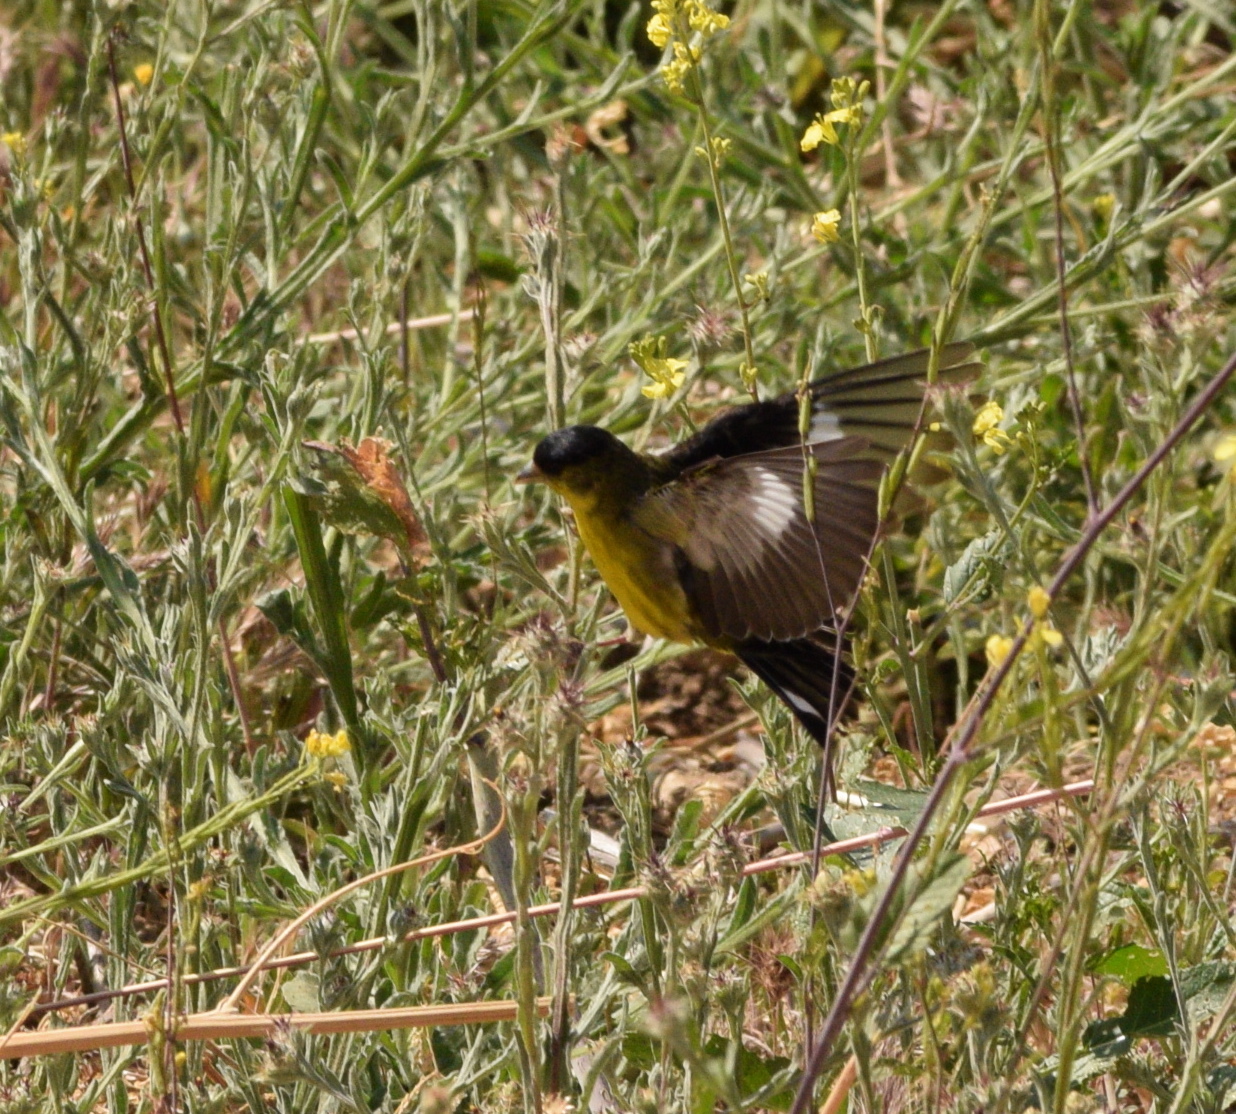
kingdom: Animalia
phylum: Chordata
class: Aves
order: Passeriformes
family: Fringillidae
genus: Spinus
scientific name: Spinus psaltria
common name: Lesser goldfinch
